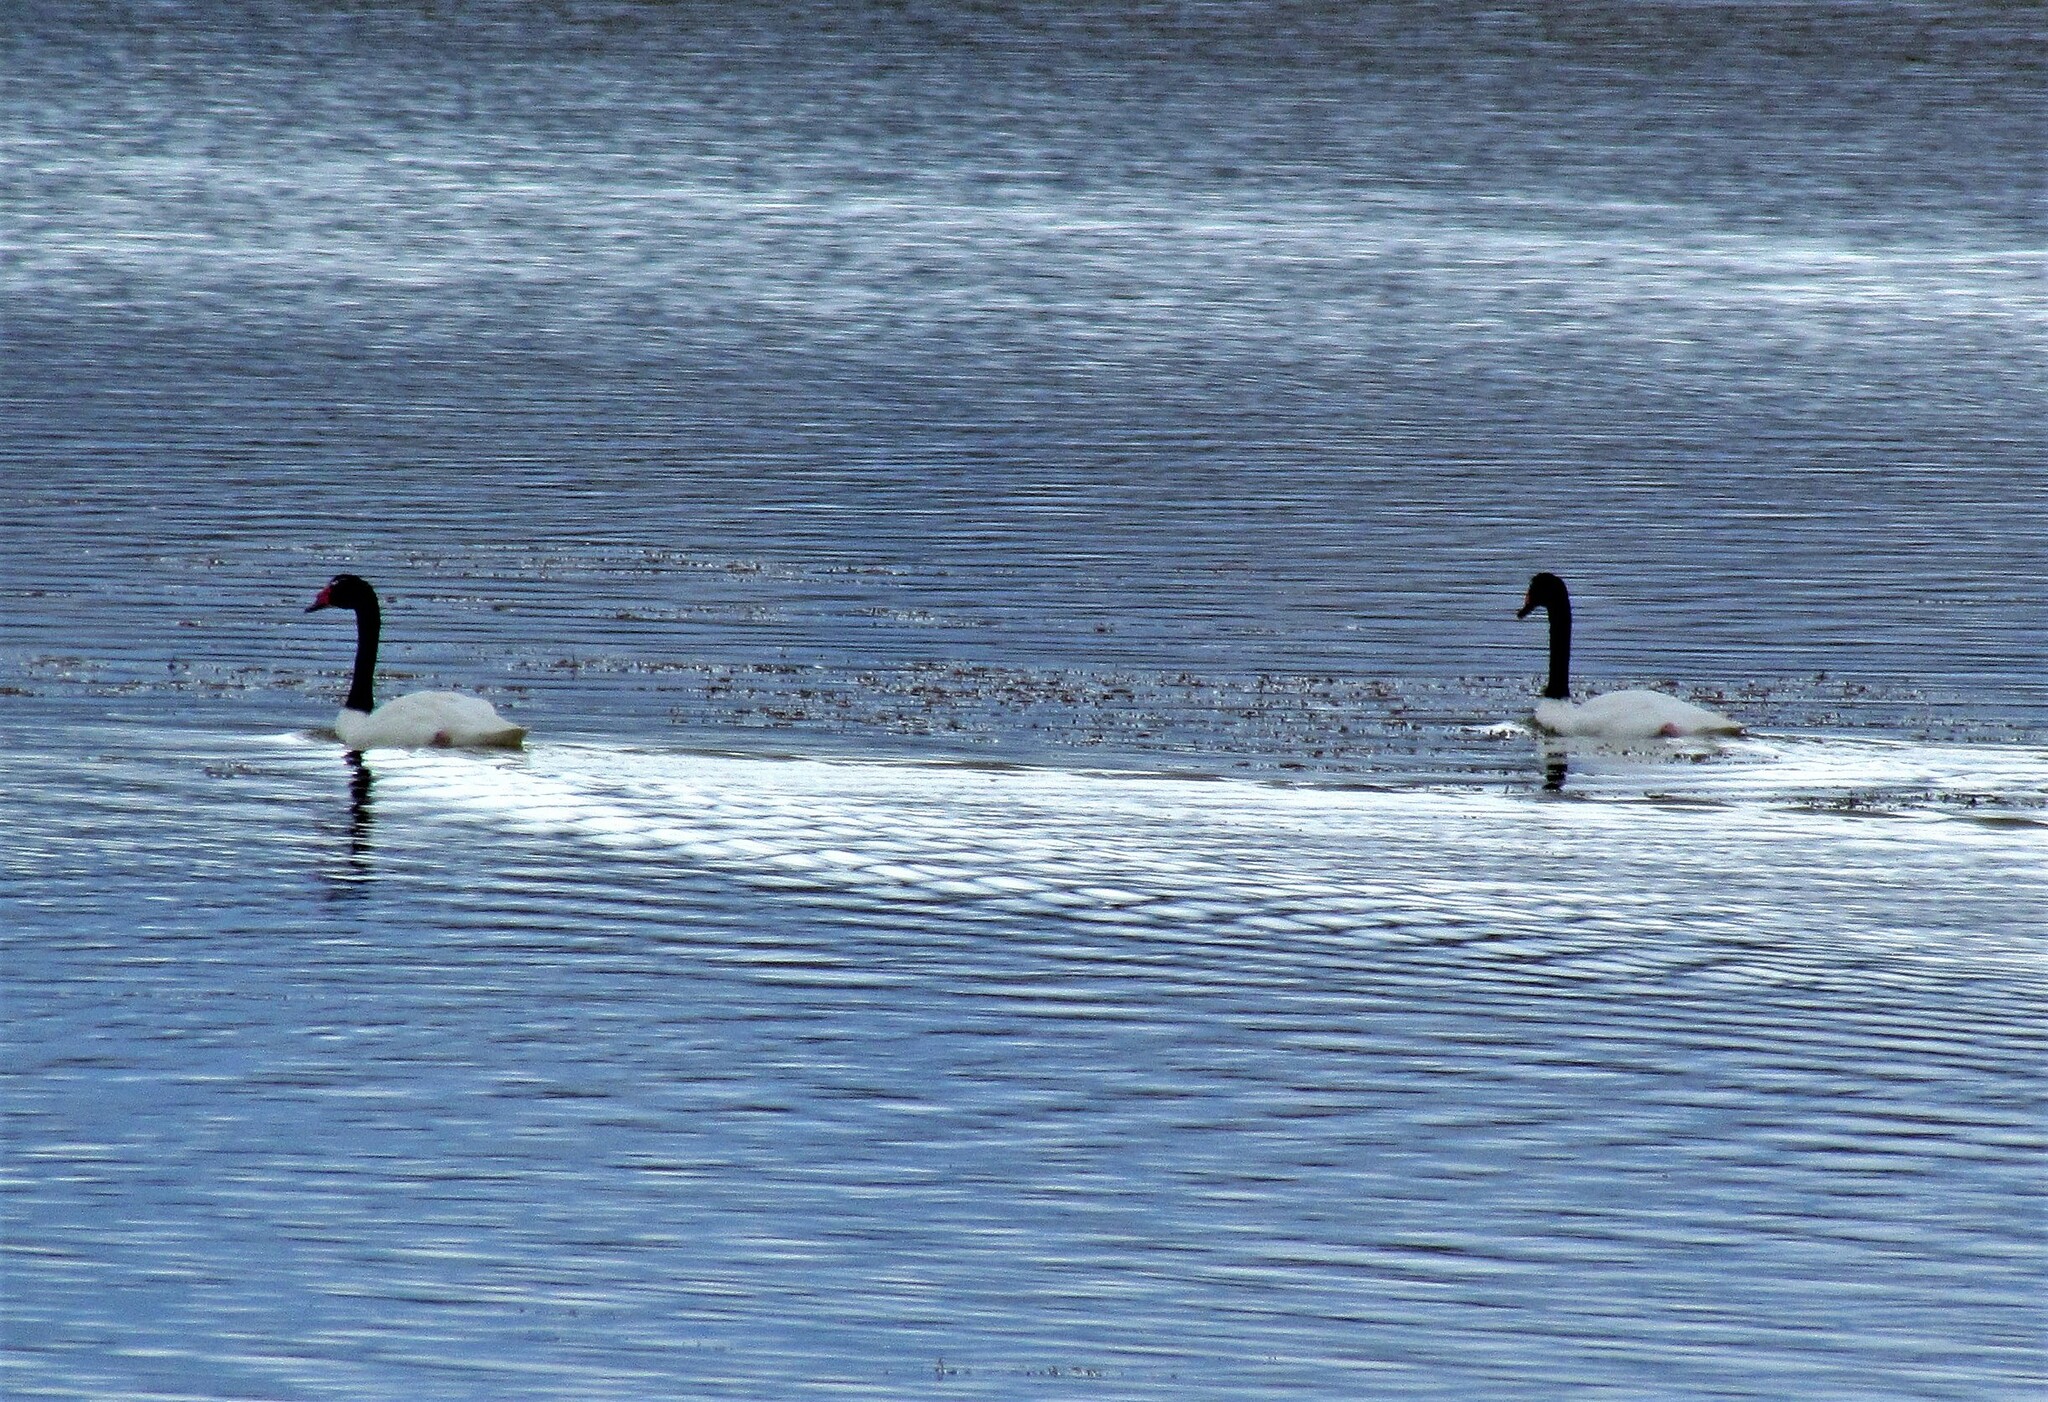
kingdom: Animalia
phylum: Chordata
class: Aves
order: Anseriformes
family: Anatidae
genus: Cygnus
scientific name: Cygnus melancoryphus
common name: Black-necked swan
